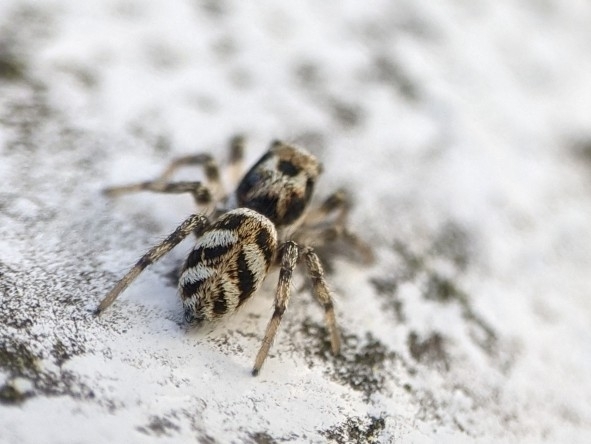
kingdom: Animalia
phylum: Arthropoda
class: Arachnida
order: Araneae
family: Salticidae
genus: Salticus
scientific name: Salticus scenicus
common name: Zebra jumper
